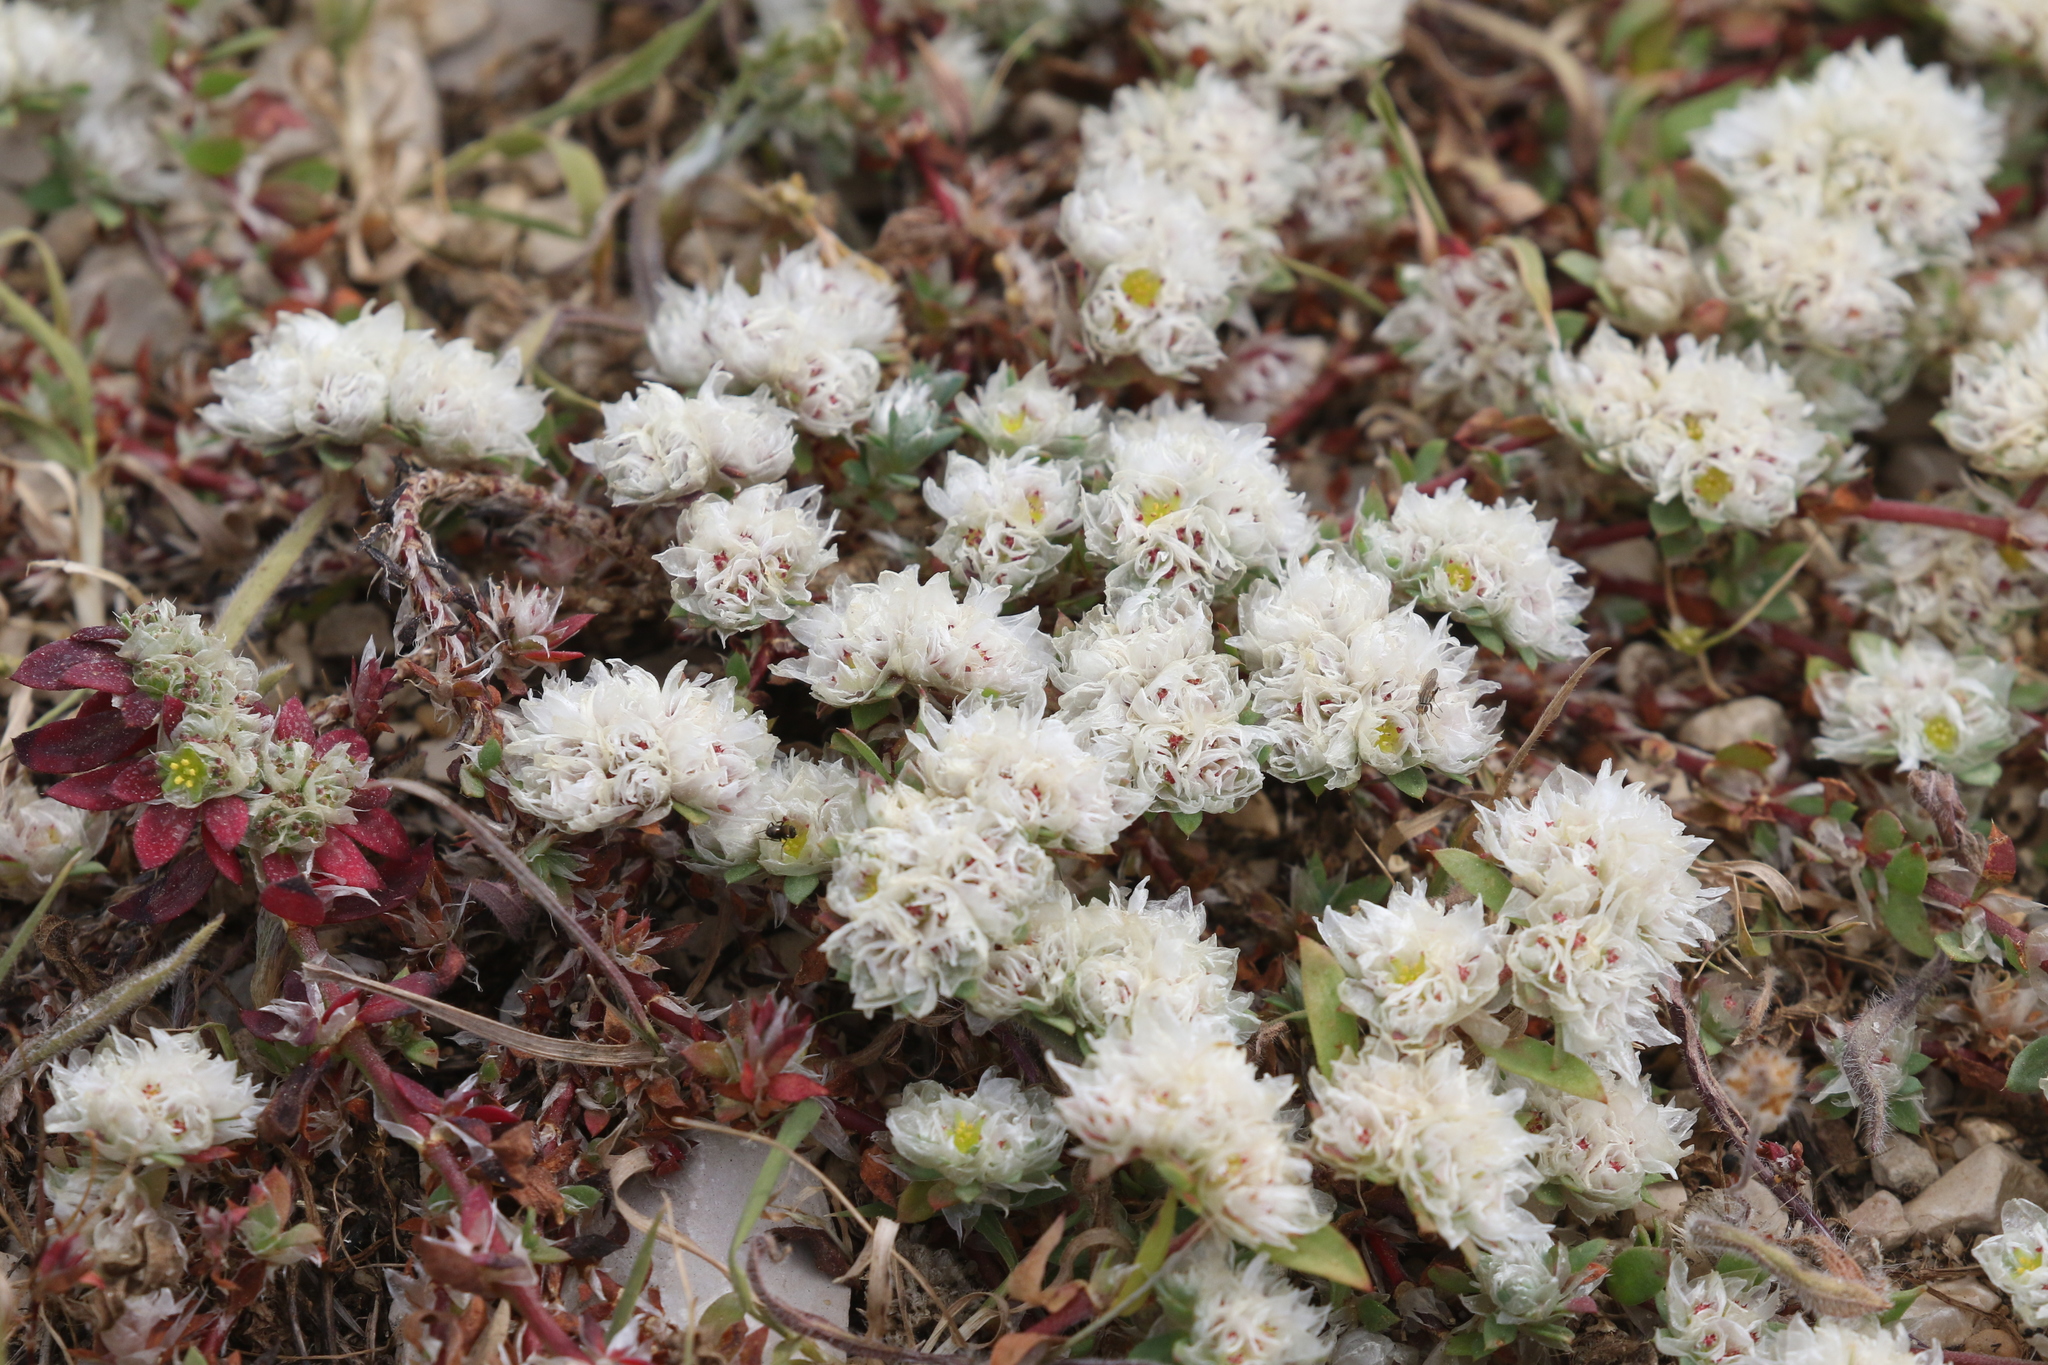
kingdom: Plantae
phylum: Tracheophyta
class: Magnoliopsida
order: Caryophyllales
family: Caryophyllaceae
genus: Paronychia
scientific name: Paronychia argentea
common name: Silver nailroot
